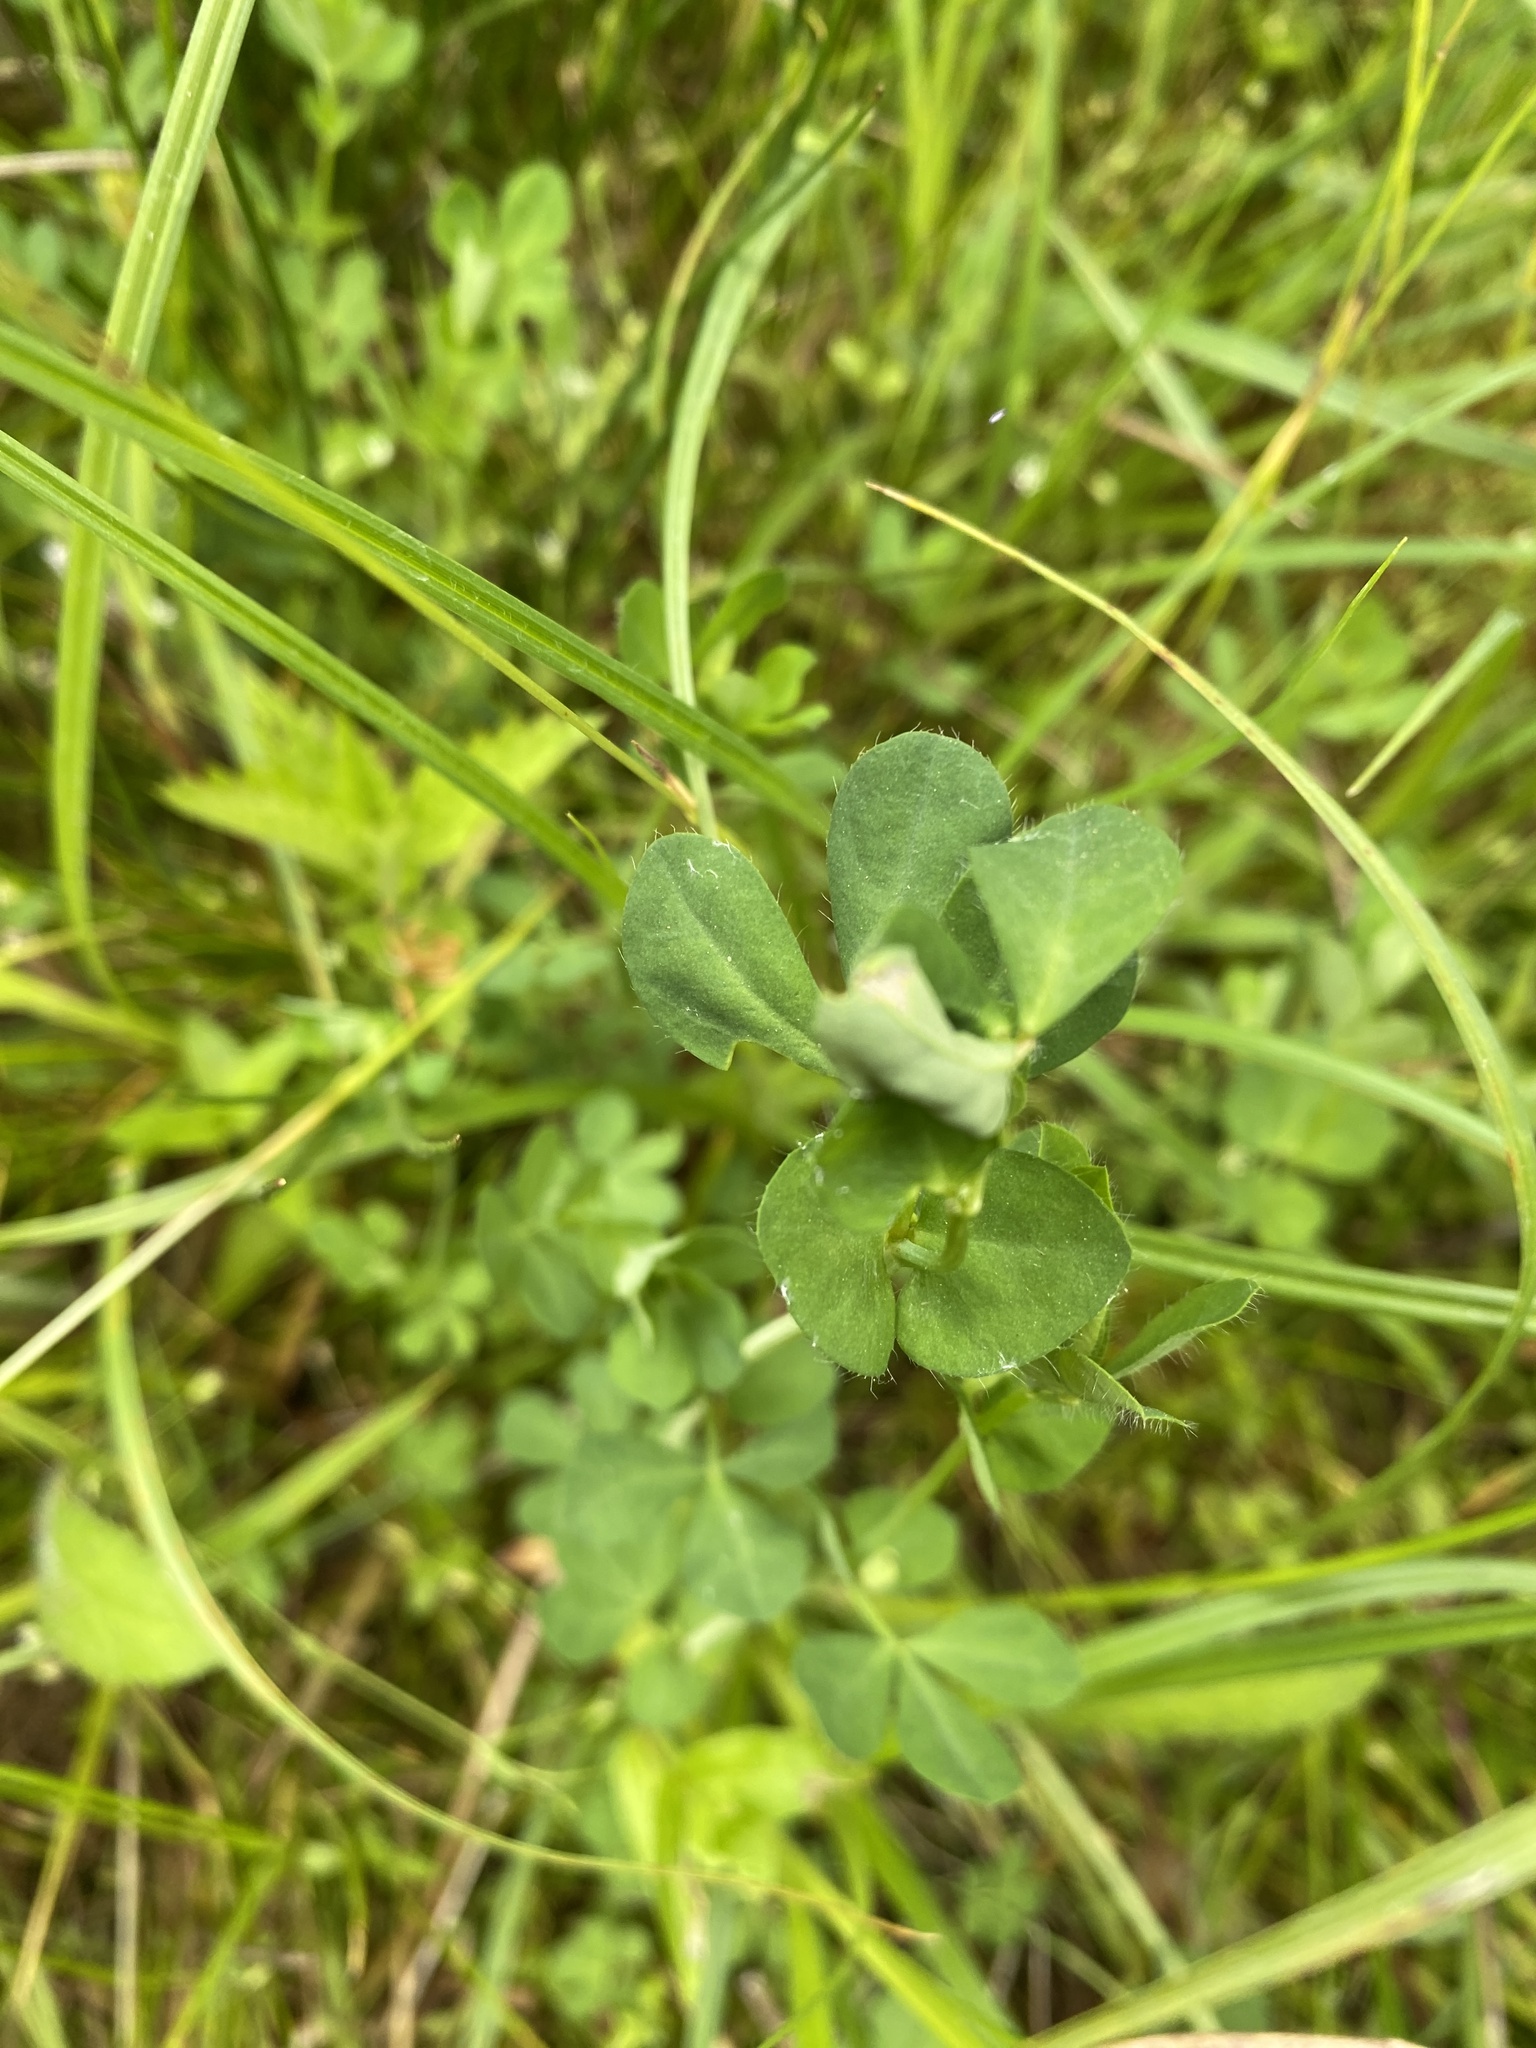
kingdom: Plantae
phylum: Tracheophyta
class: Magnoliopsida
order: Fabales
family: Fabaceae
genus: Lotus
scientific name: Lotus pedunculatus
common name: Greater birdsfoot-trefoil
